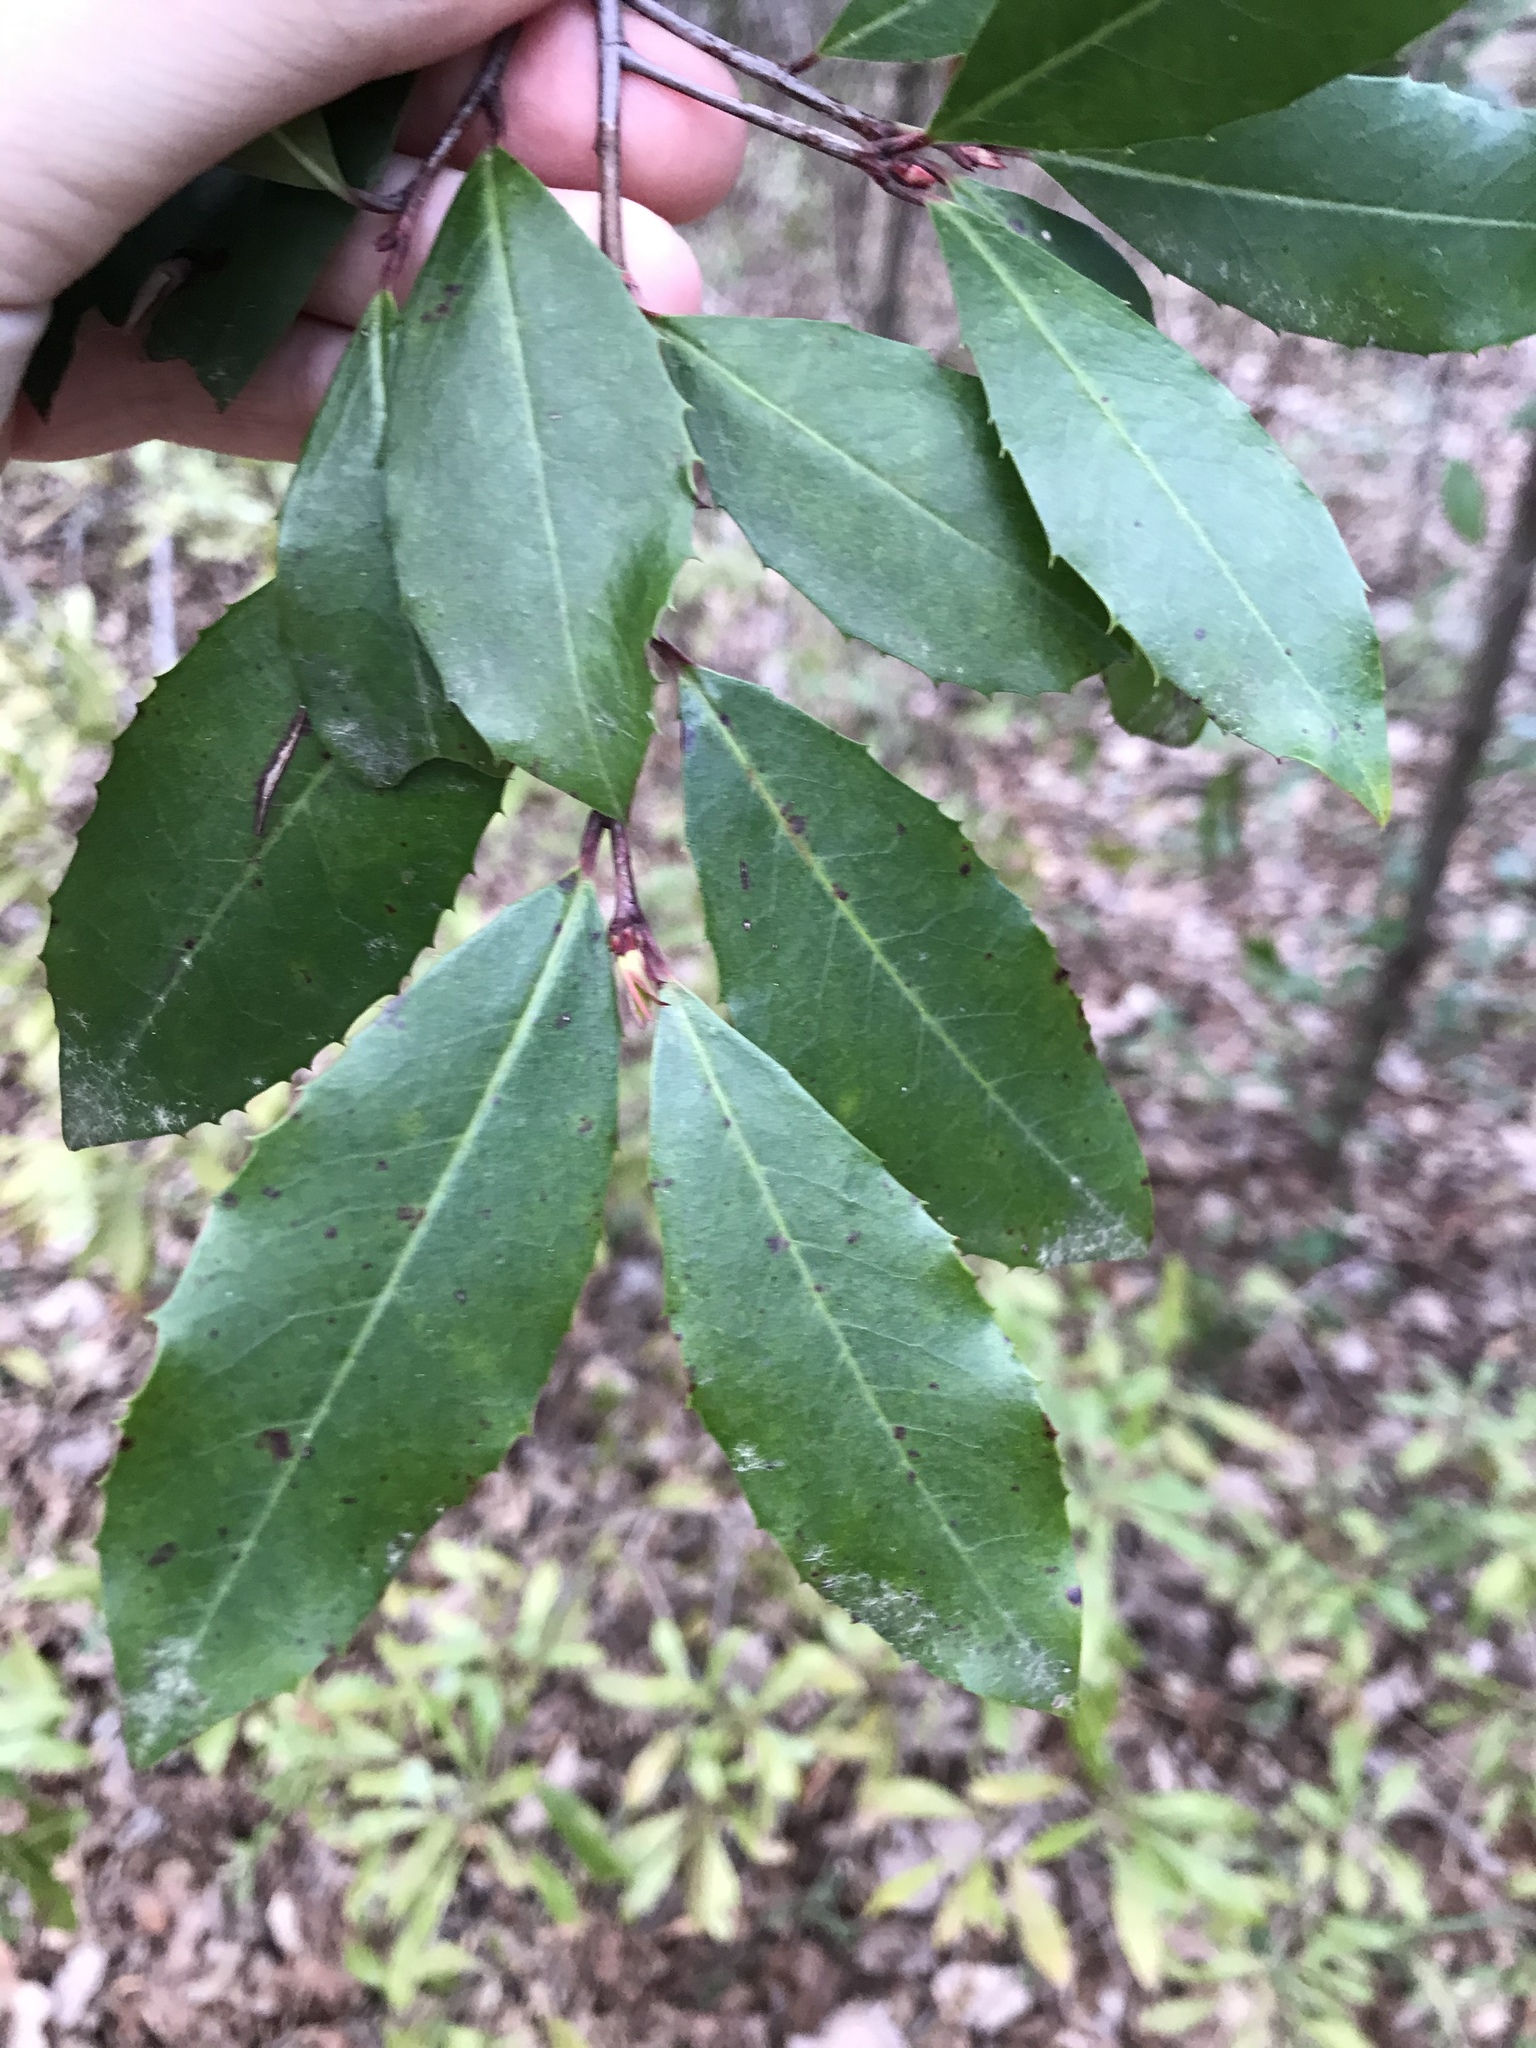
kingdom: Plantae
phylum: Tracheophyta
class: Magnoliopsida
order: Rosales
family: Rosaceae
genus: Prunus
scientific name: Prunus serotina
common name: Black cherry
